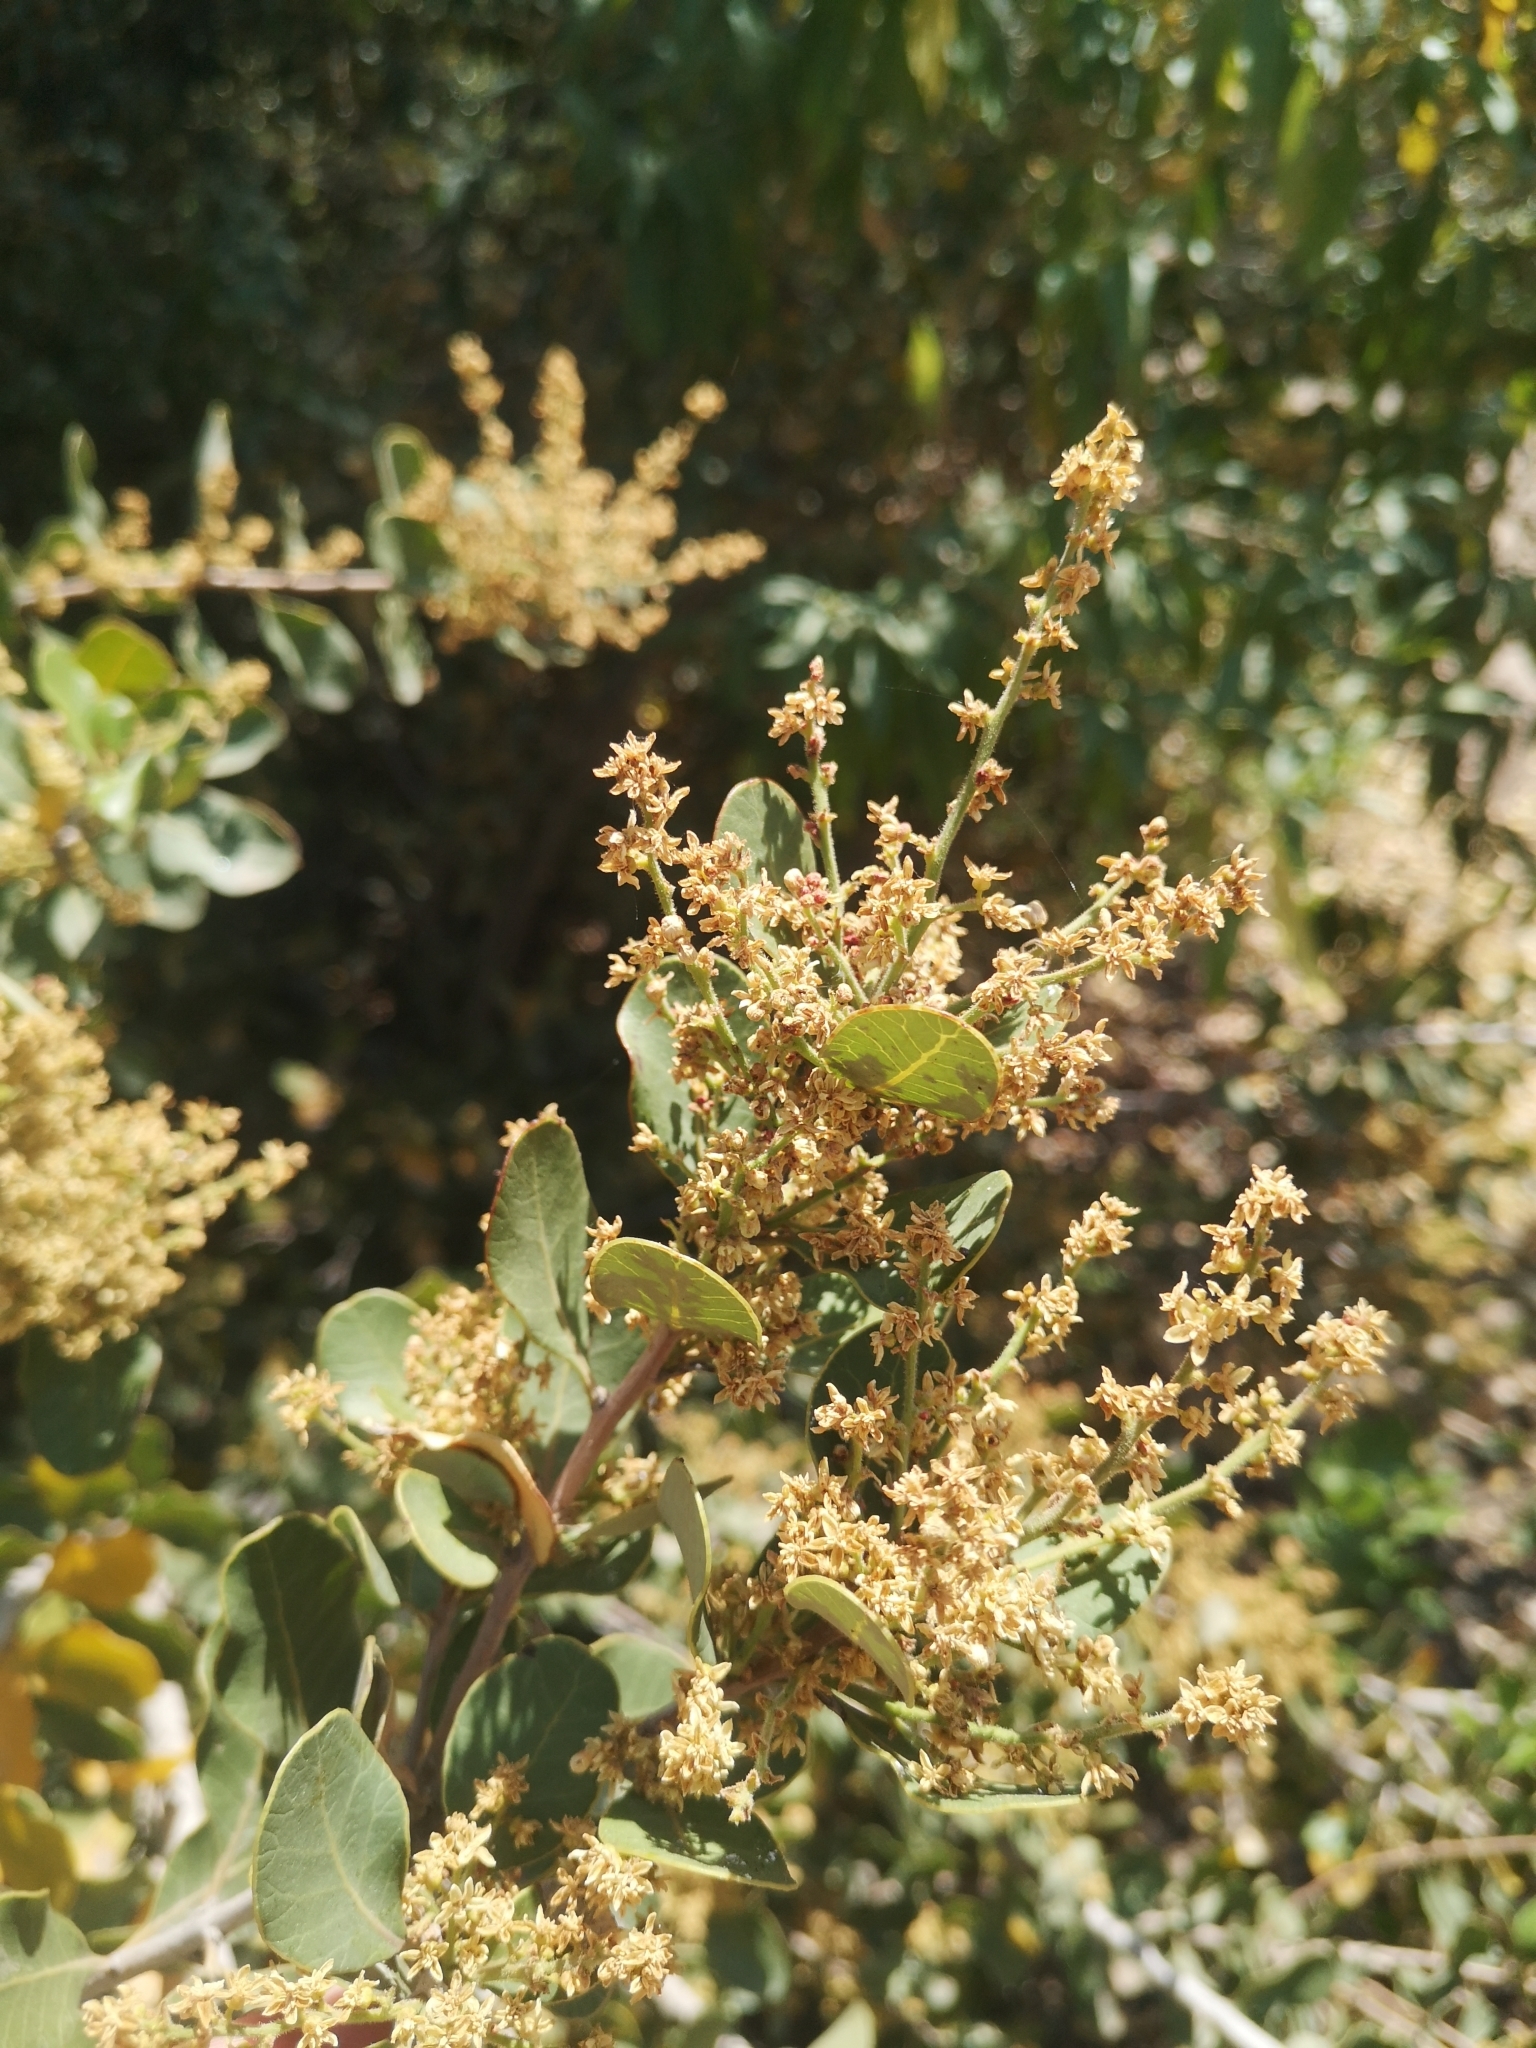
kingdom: Plantae
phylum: Tracheophyta
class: Magnoliopsida
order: Sapindales
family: Anacardiaceae
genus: Lithraea
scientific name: Lithraea caustica
